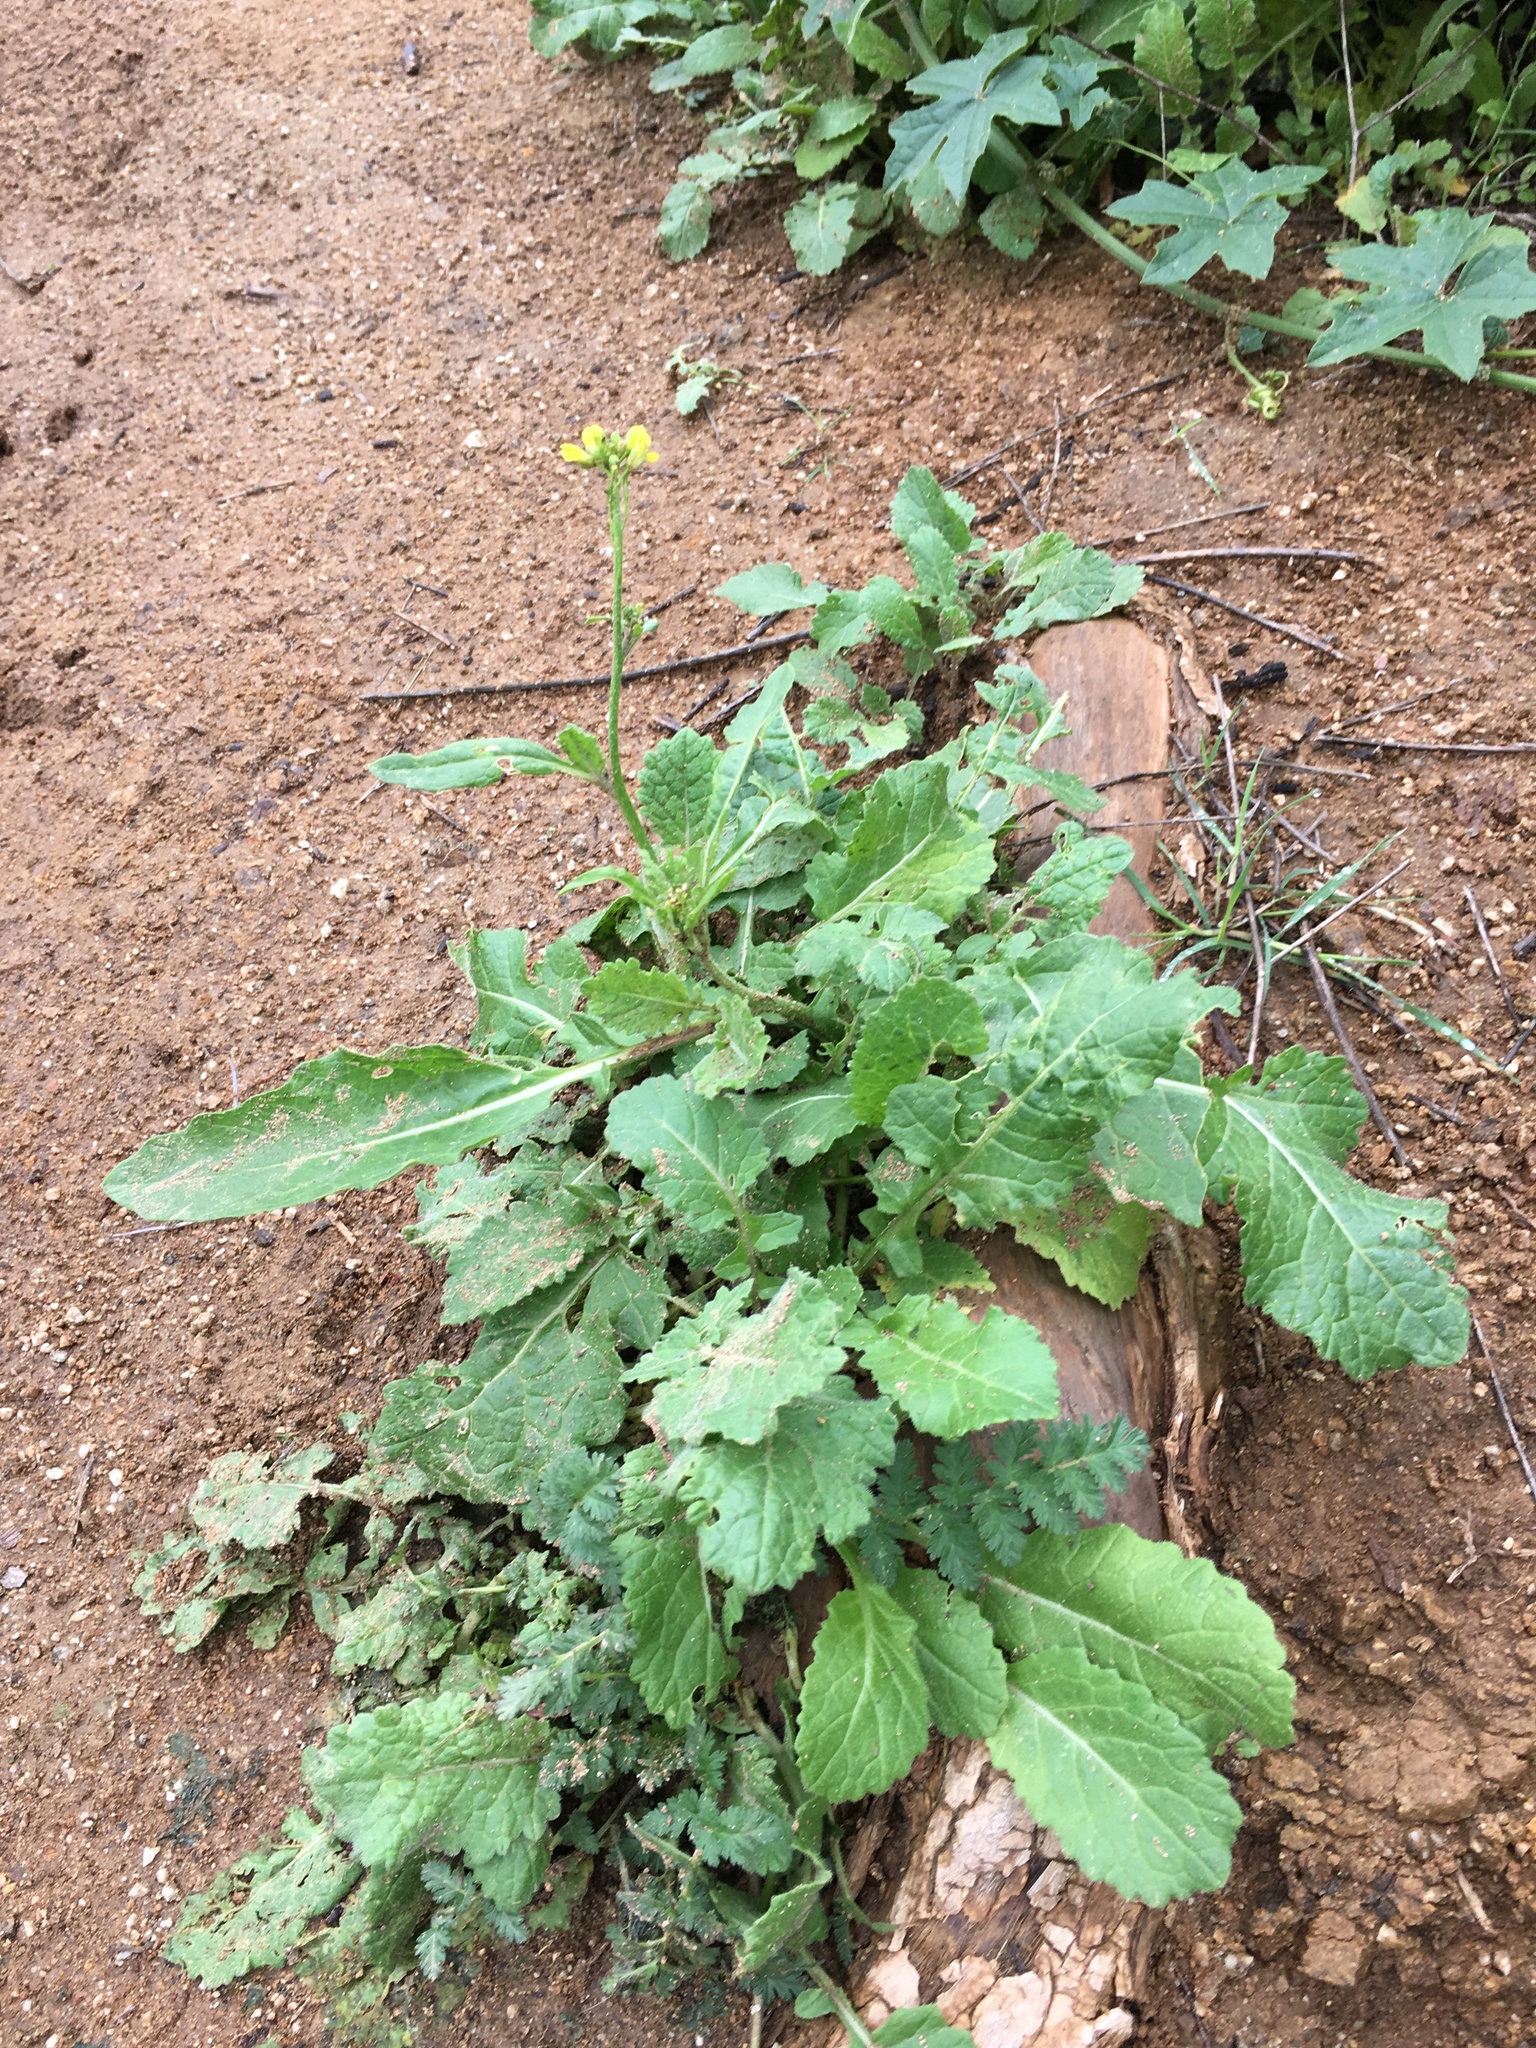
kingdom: Plantae
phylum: Tracheophyta
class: Magnoliopsida
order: Brassicales
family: Brassicaceae
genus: Hirschfeldia
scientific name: Hirschfeldia incana
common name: Hoary mustard
